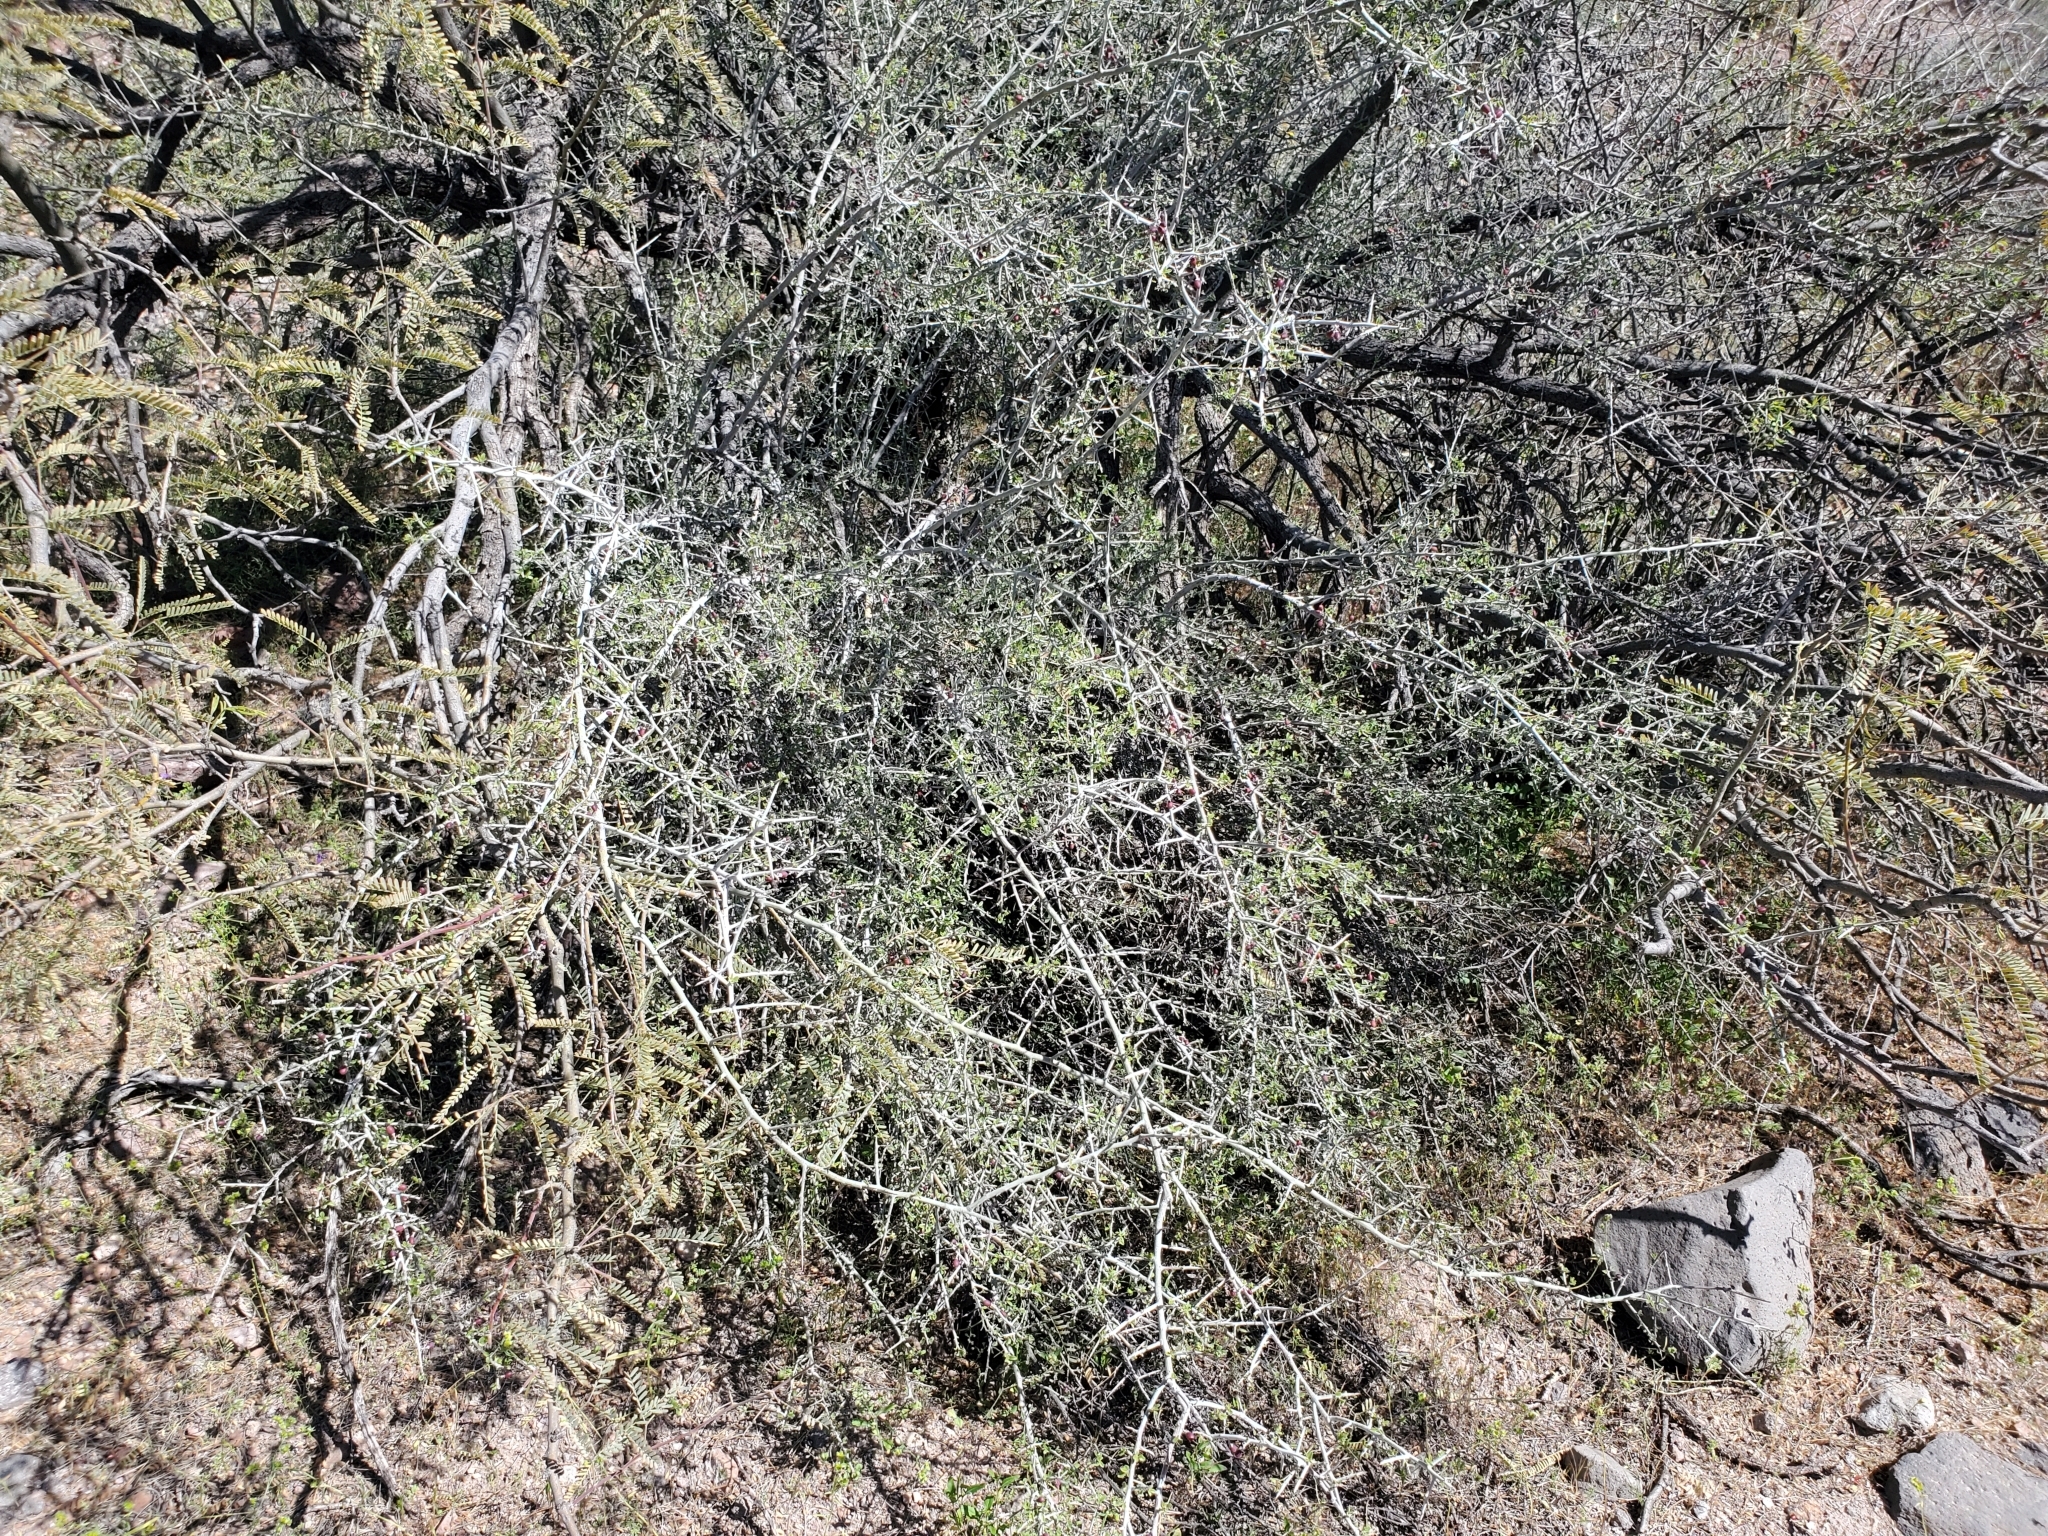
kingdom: Plantae
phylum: Tracheophyta
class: Magnoliopsida
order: Rosales
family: Rhamnaceae
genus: Sarcomphalus
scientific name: Sarcomphalus obtusifolius
